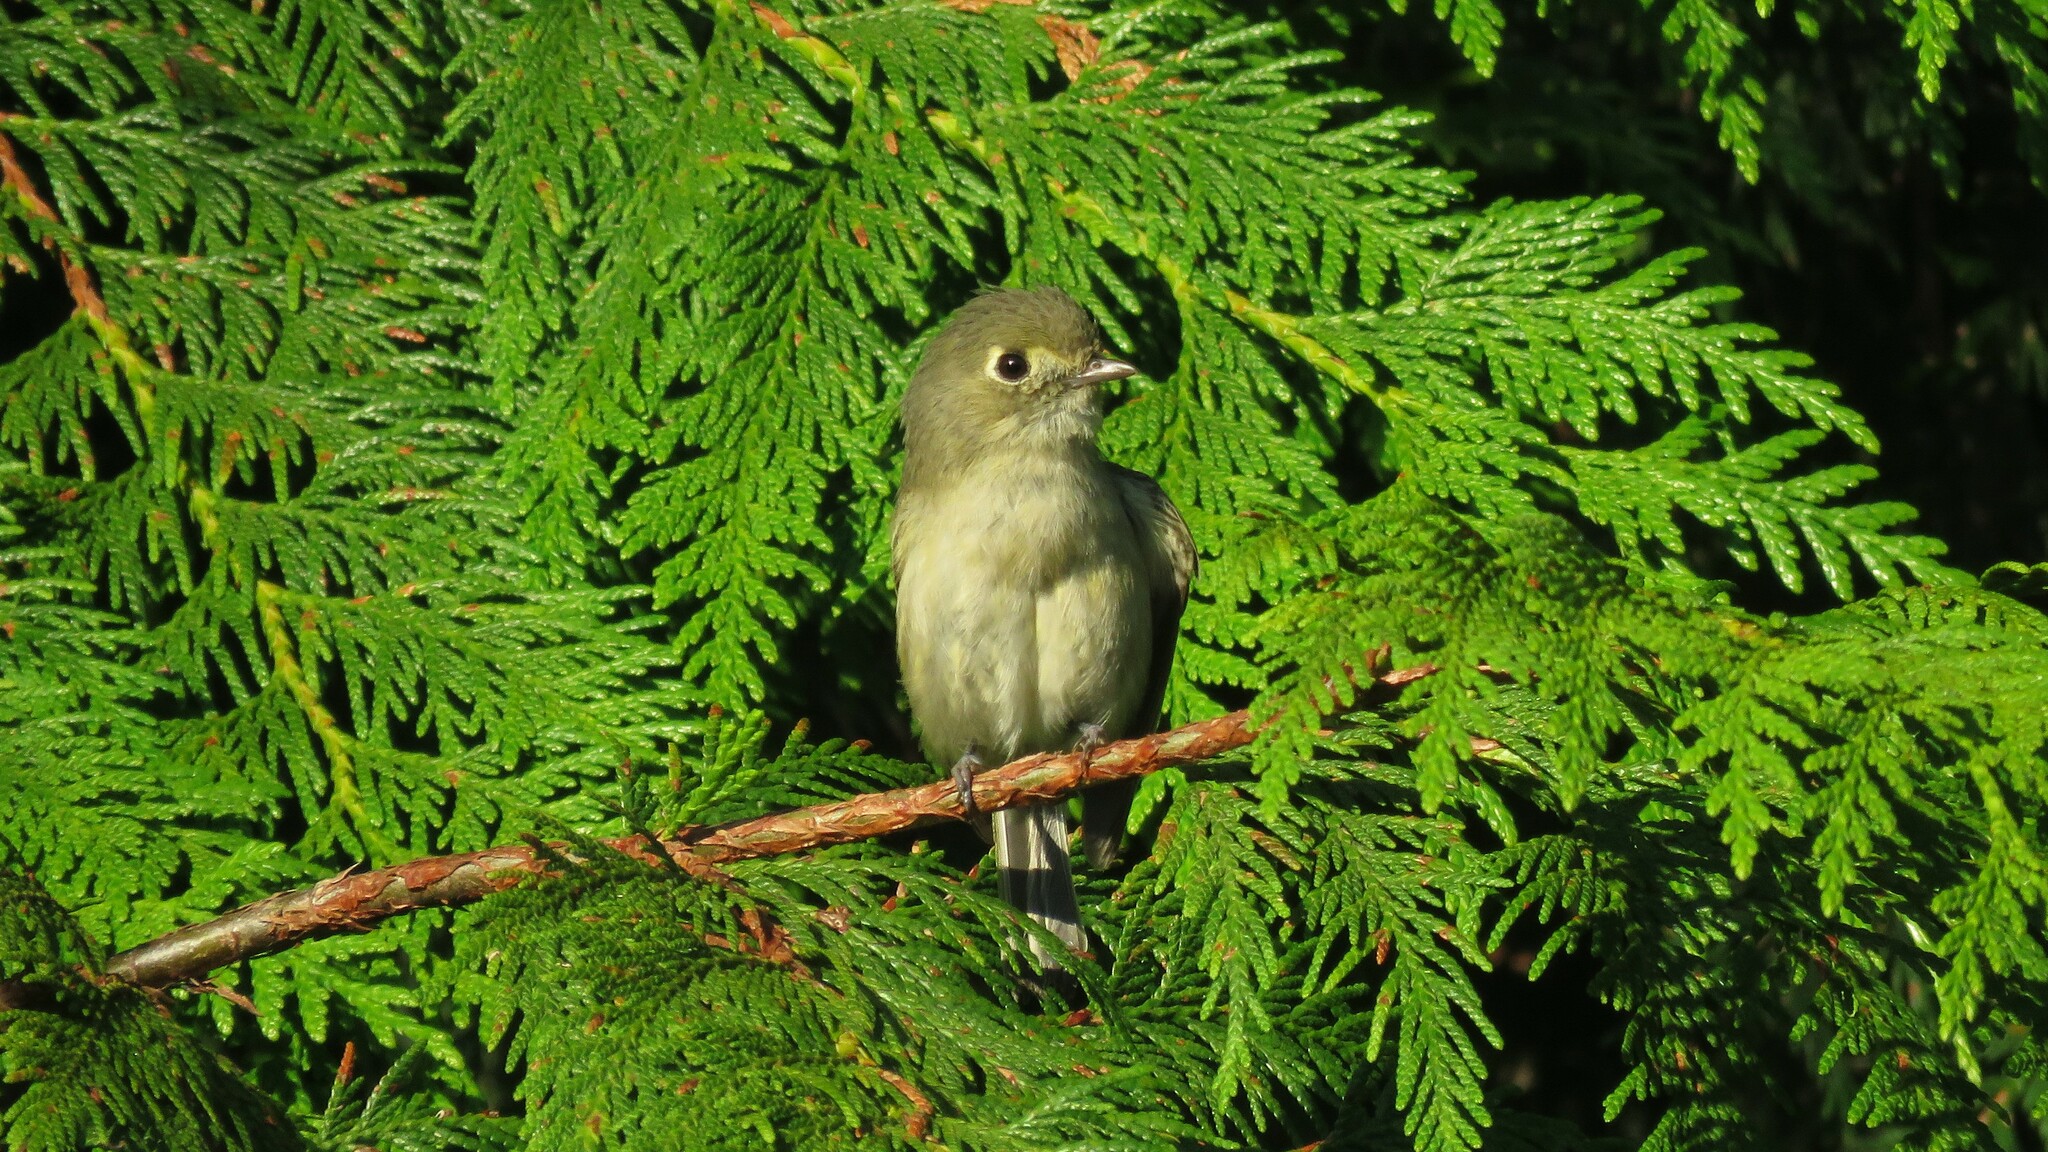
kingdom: Animalia
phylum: Chordata
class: Aves
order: Passeriformes
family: Vireonidae
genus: Vireo
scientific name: Vireo huttoni
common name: Hutton's vireo
